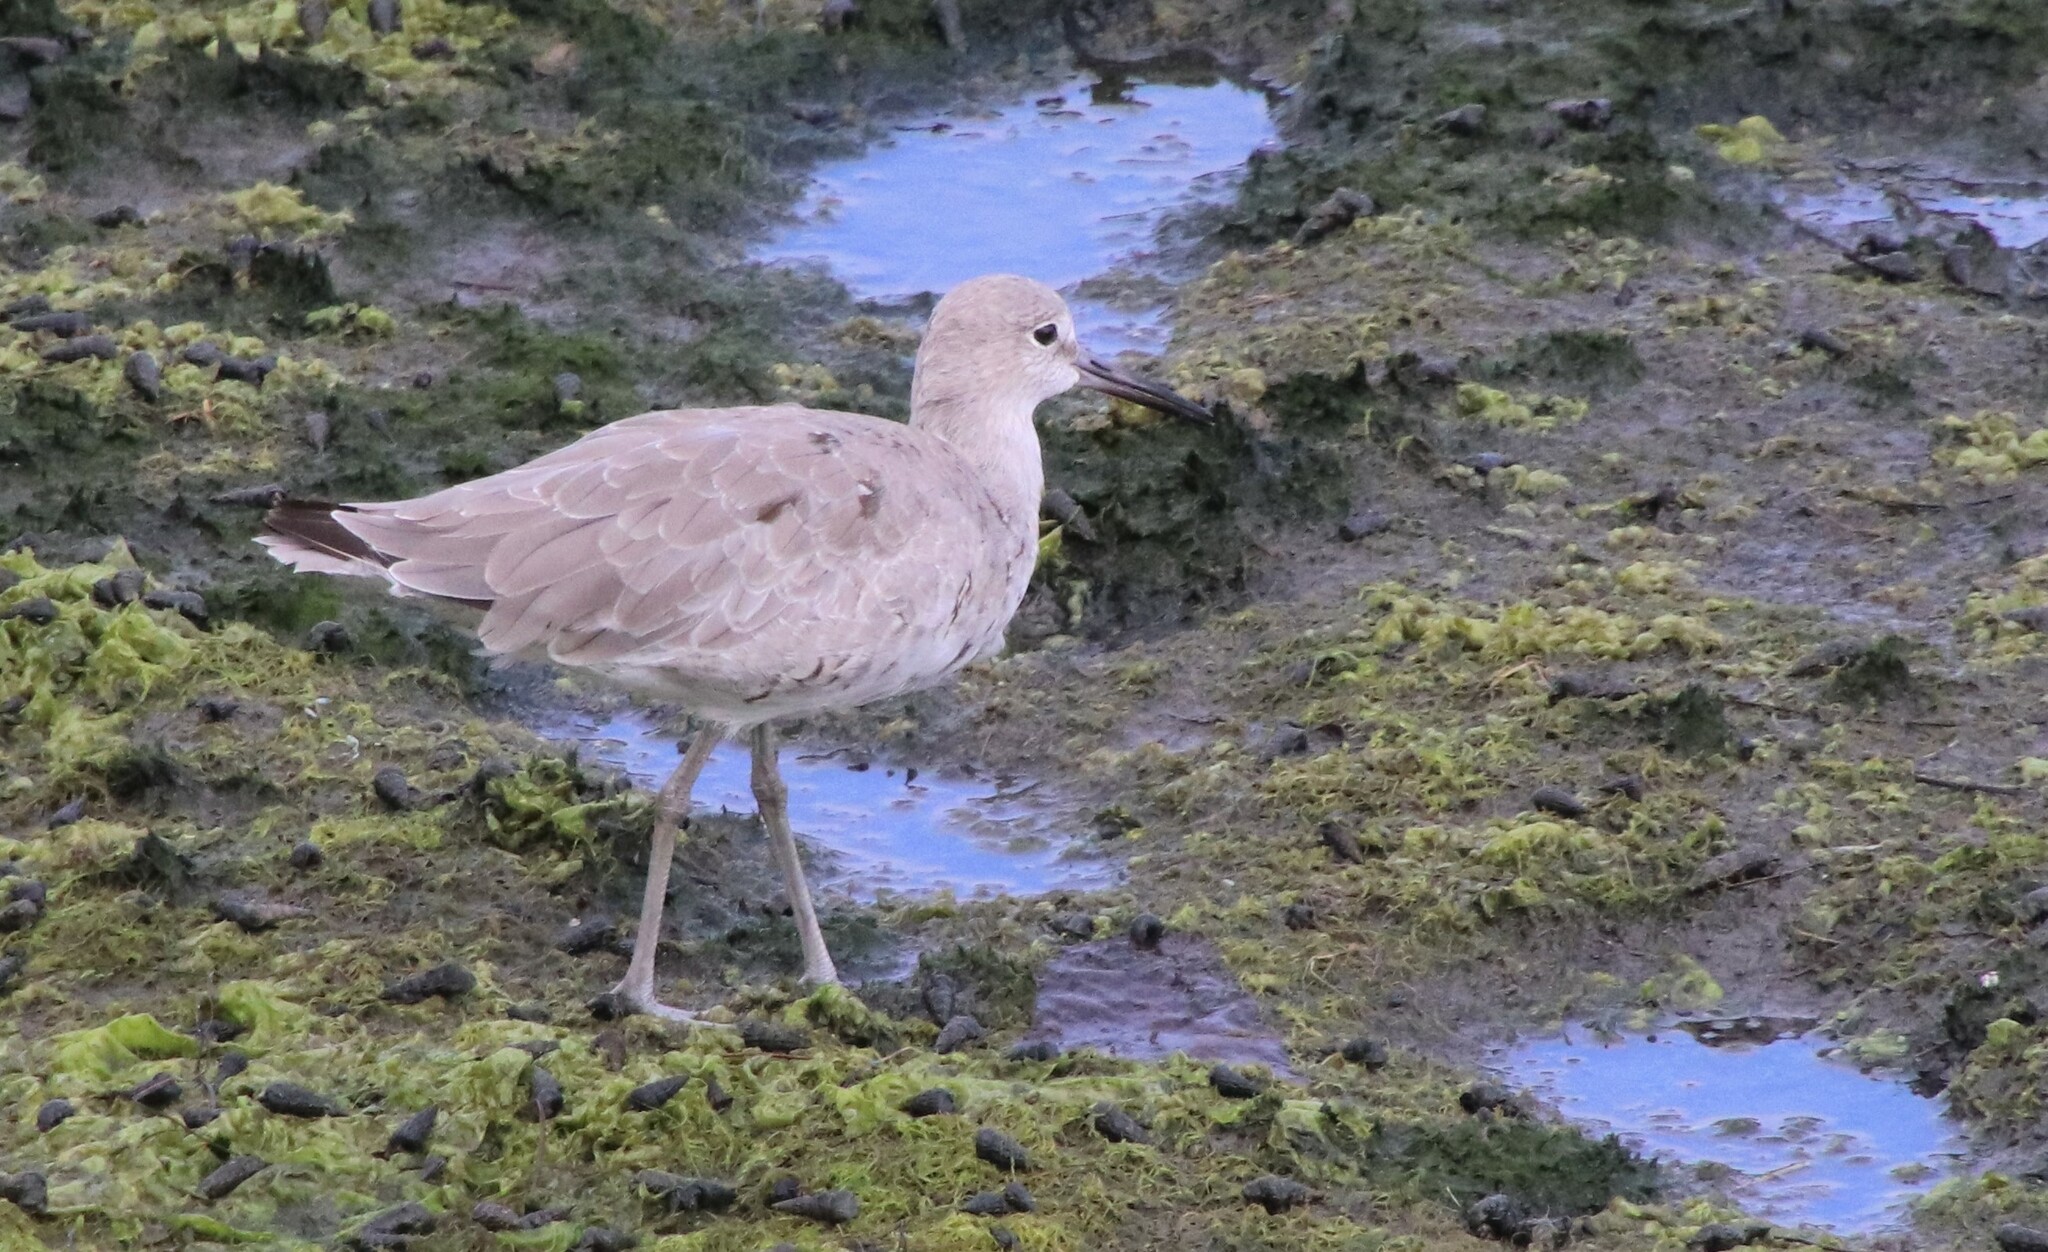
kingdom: Animalia
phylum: Chordata
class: Aves
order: Charadriiformes
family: Scolopacidae
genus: Tringa
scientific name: Tringa semipalmata
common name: Willet
